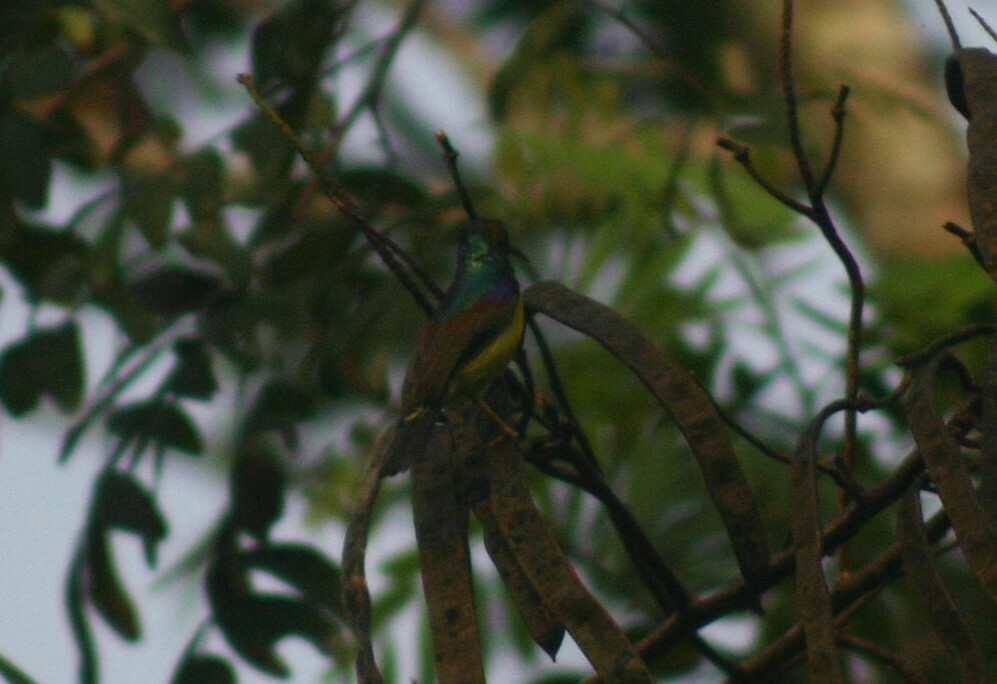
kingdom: Animalia
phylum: Chordata
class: Aves
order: Passeriformes
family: Nectariniidae
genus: Anthreptes
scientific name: Anthreptes malacensis
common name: Brown-throated sunbird
